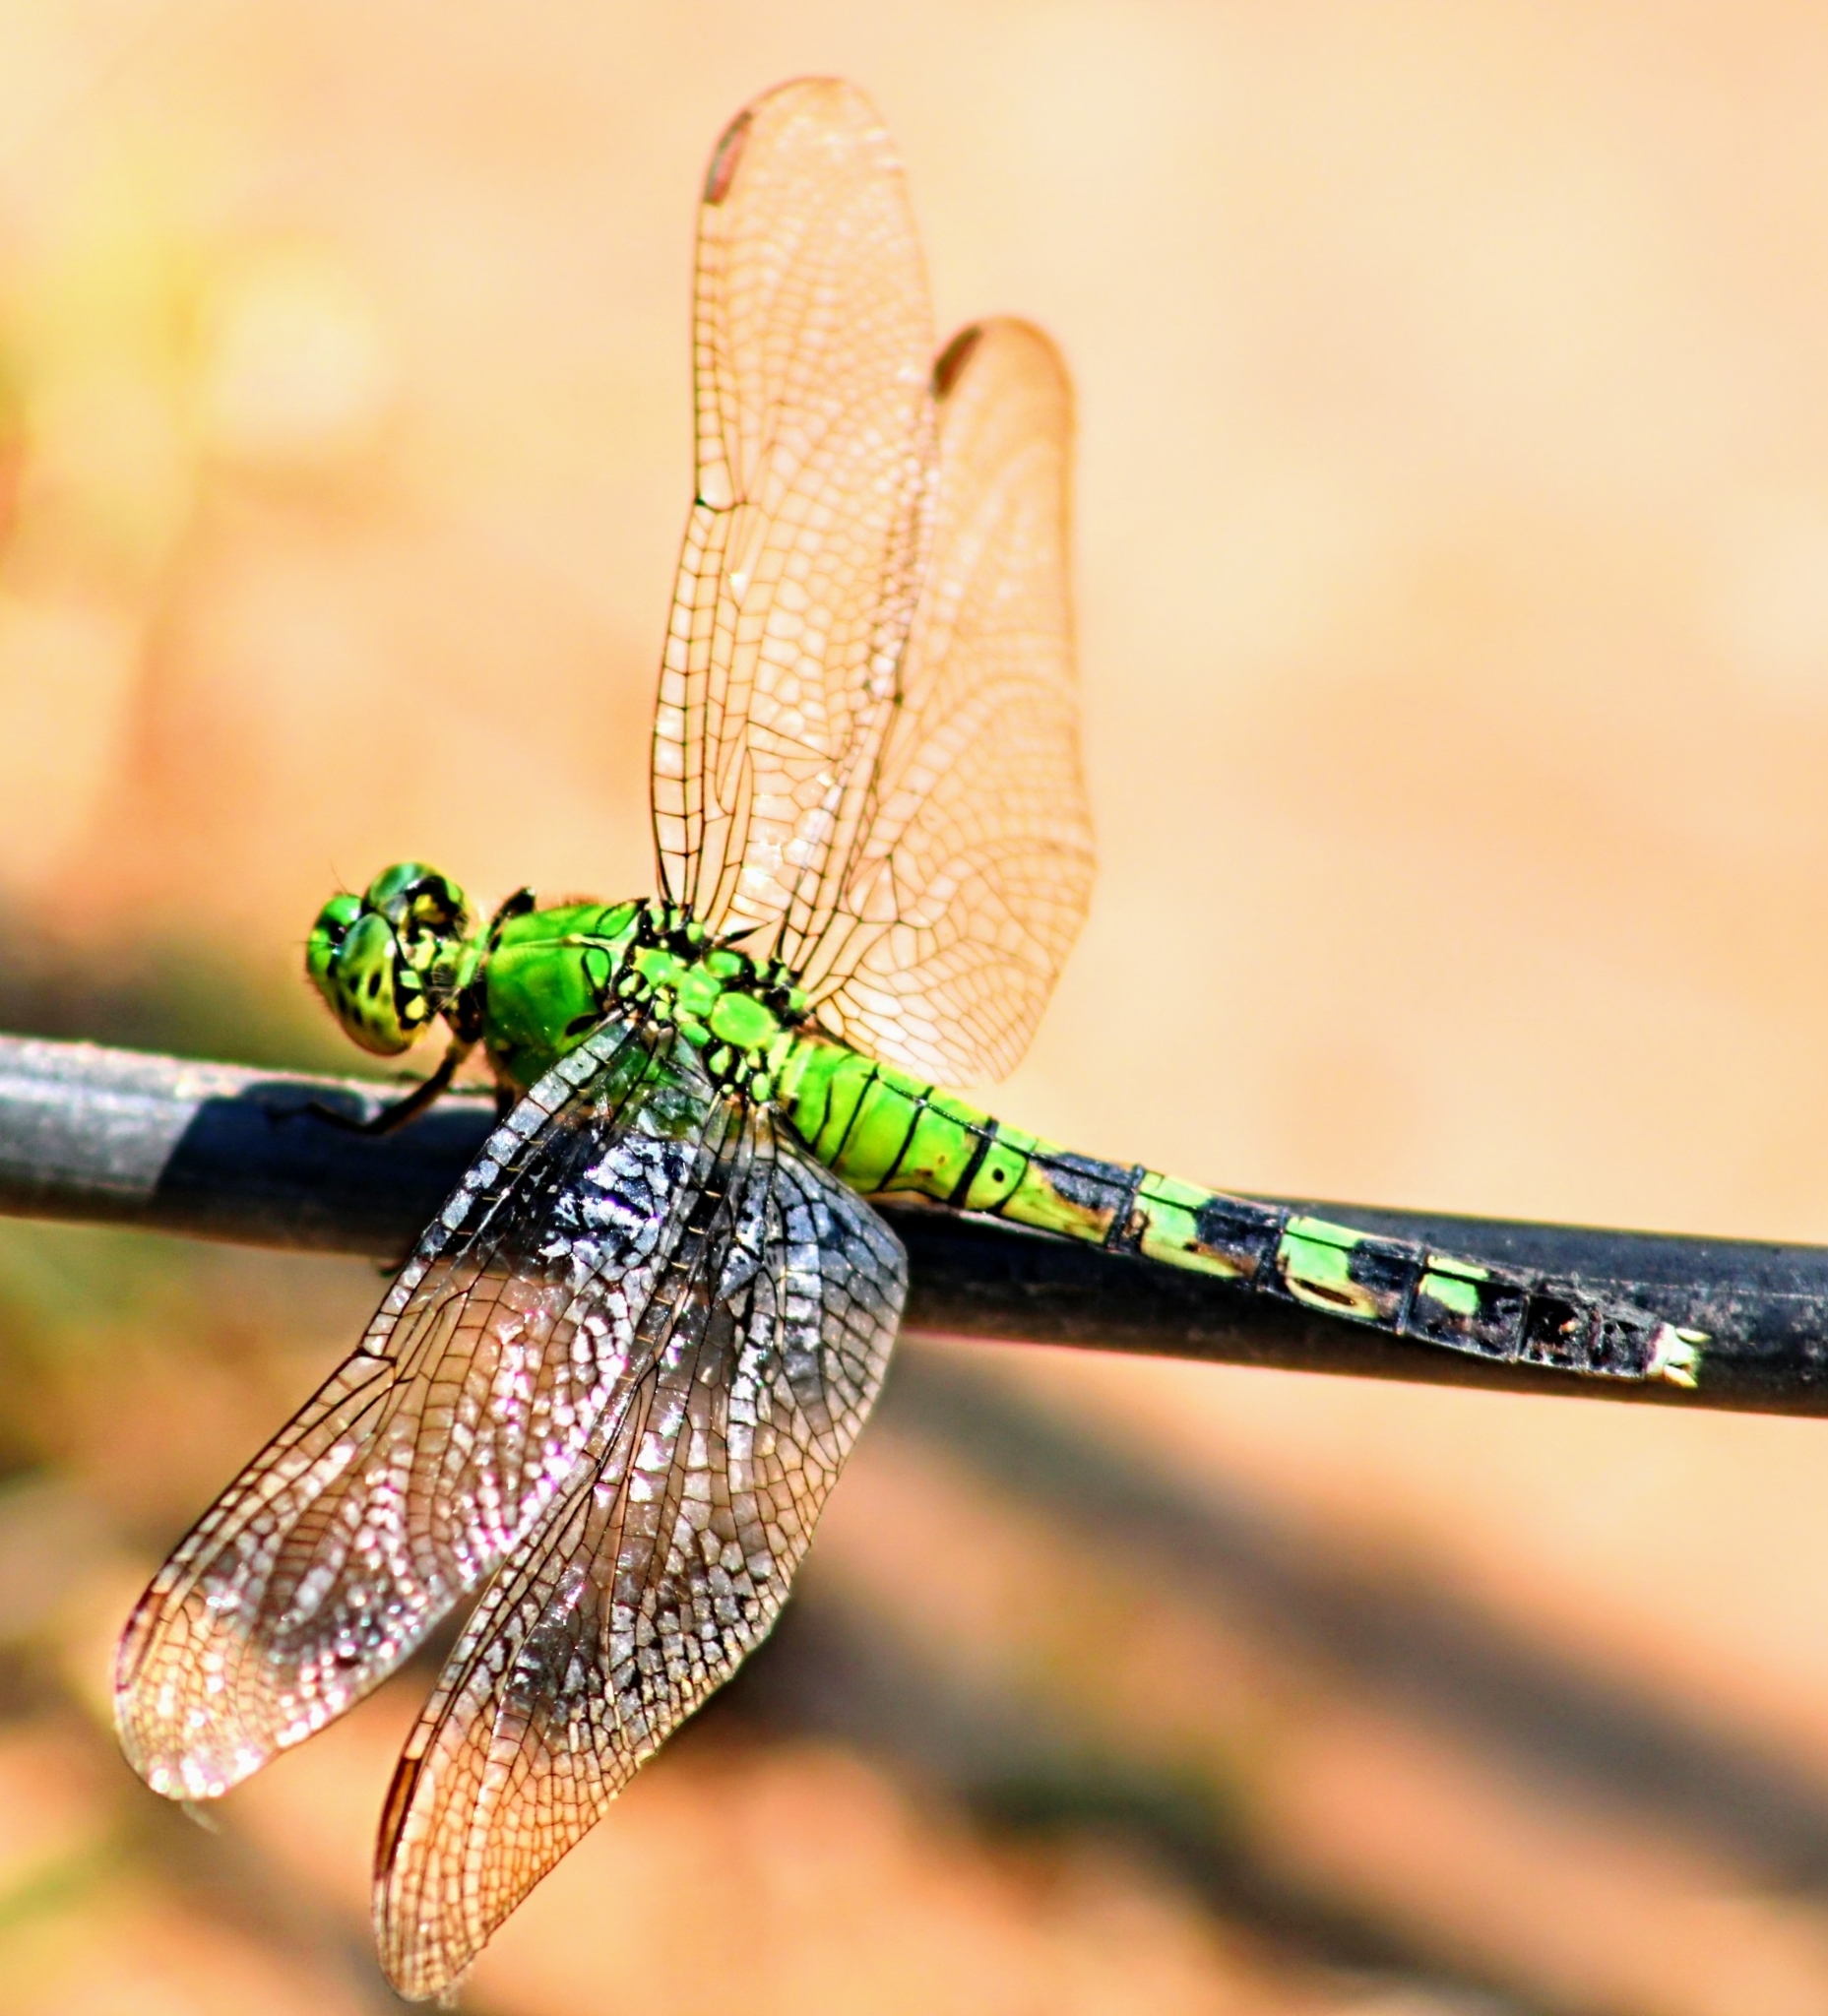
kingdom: Animalia
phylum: Arthropoda
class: Insecta
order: Odonata
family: Libellulidae
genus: Erythemis
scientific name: Erythemis simplicicollis
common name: Eastern pondhawk
